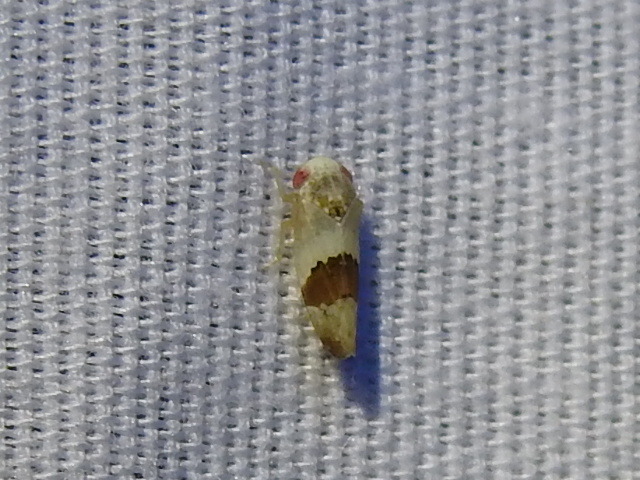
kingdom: Animalia
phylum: Arthropoda
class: Insecta
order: Hemiptera
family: Cicadellidae
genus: Norvellina
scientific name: Norvellina seminuda
